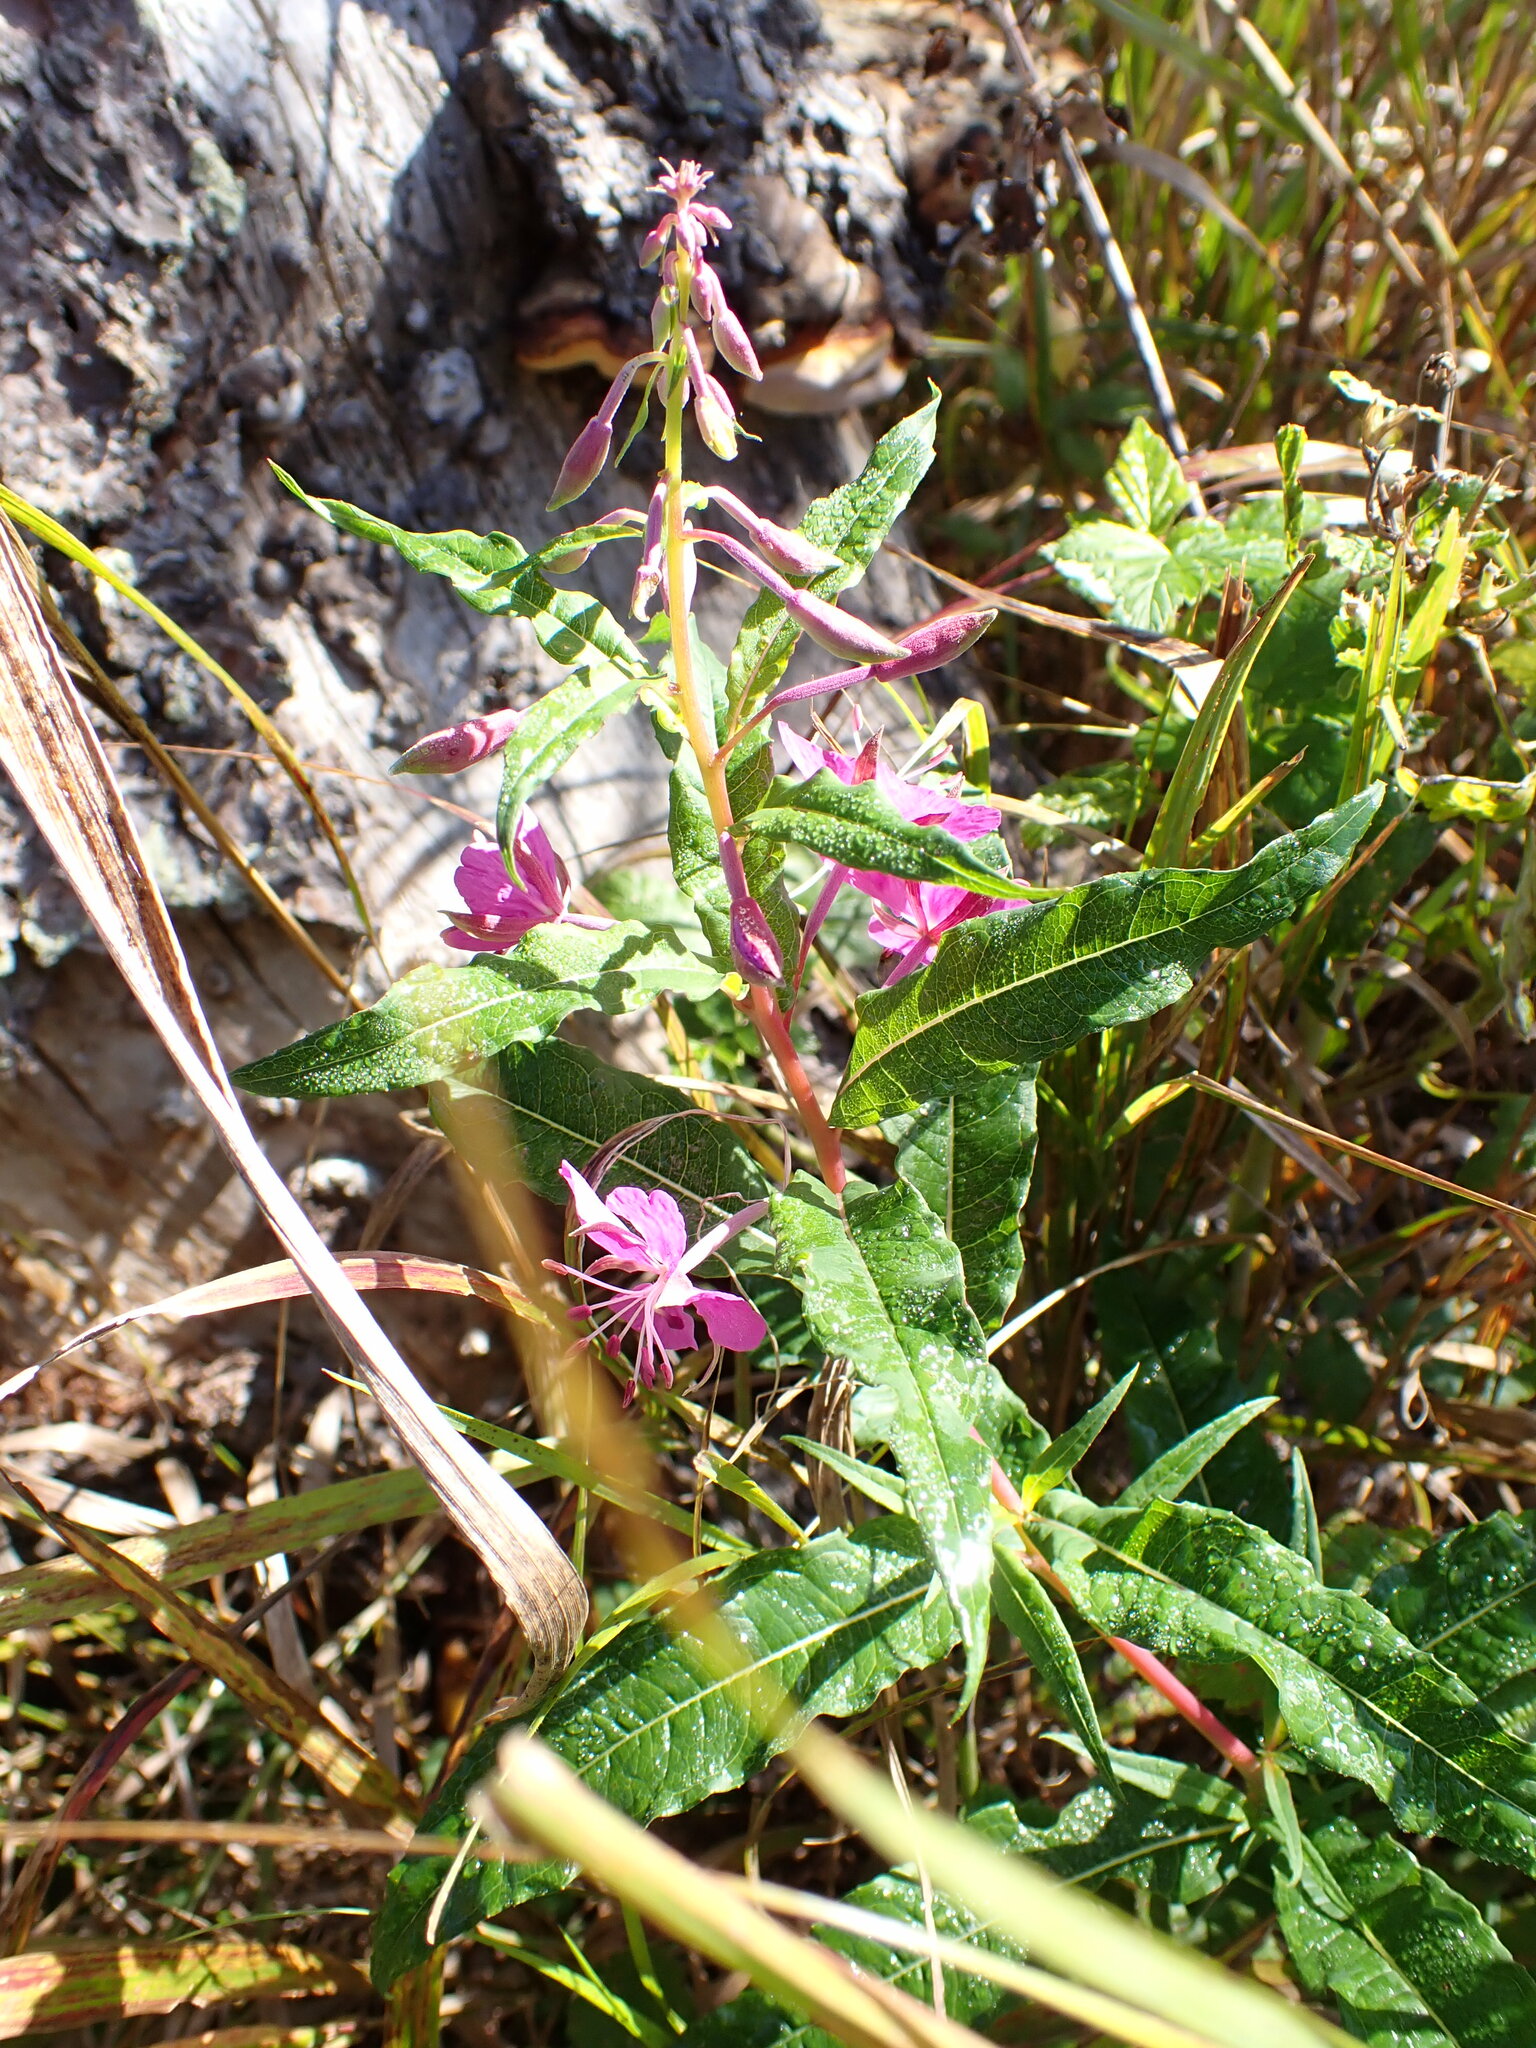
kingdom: Plantae
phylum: Tracheophyta
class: Magnoliopsida
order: Myrtales
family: Onagraceae
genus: Chamaenerion
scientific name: Chamaenerion angustifolium
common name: Fireweed
